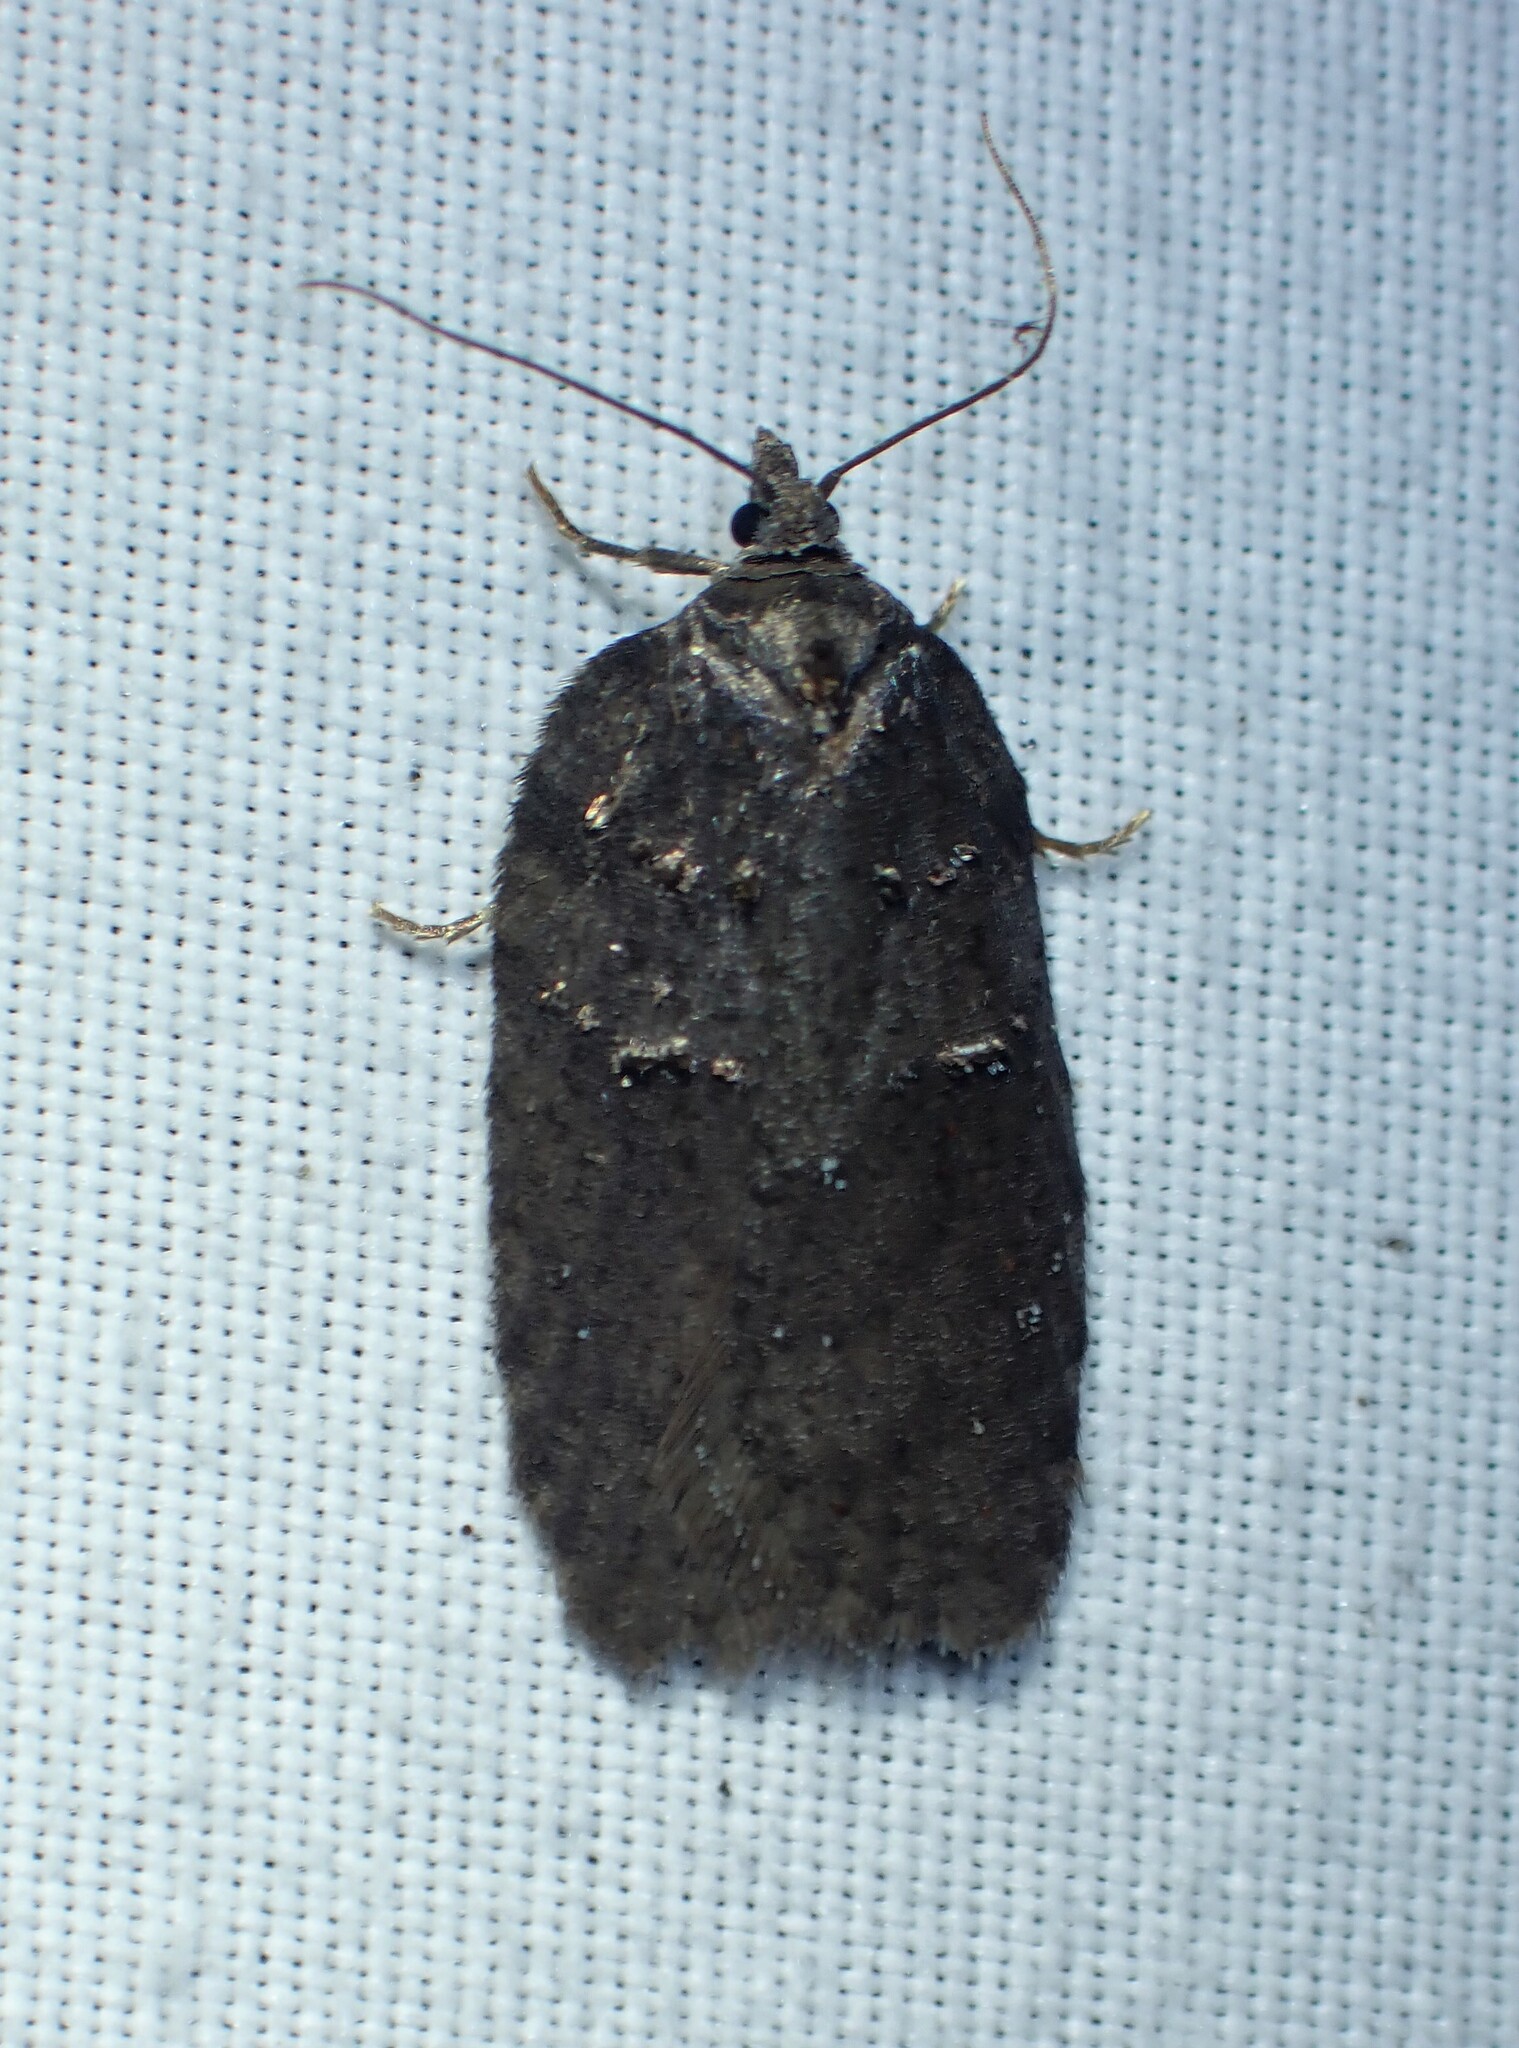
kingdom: Animalia
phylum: Arthropoda
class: Insecta
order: Lepidoptera
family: Tortricidae
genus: Acleris
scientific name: Acleris caliginosana
